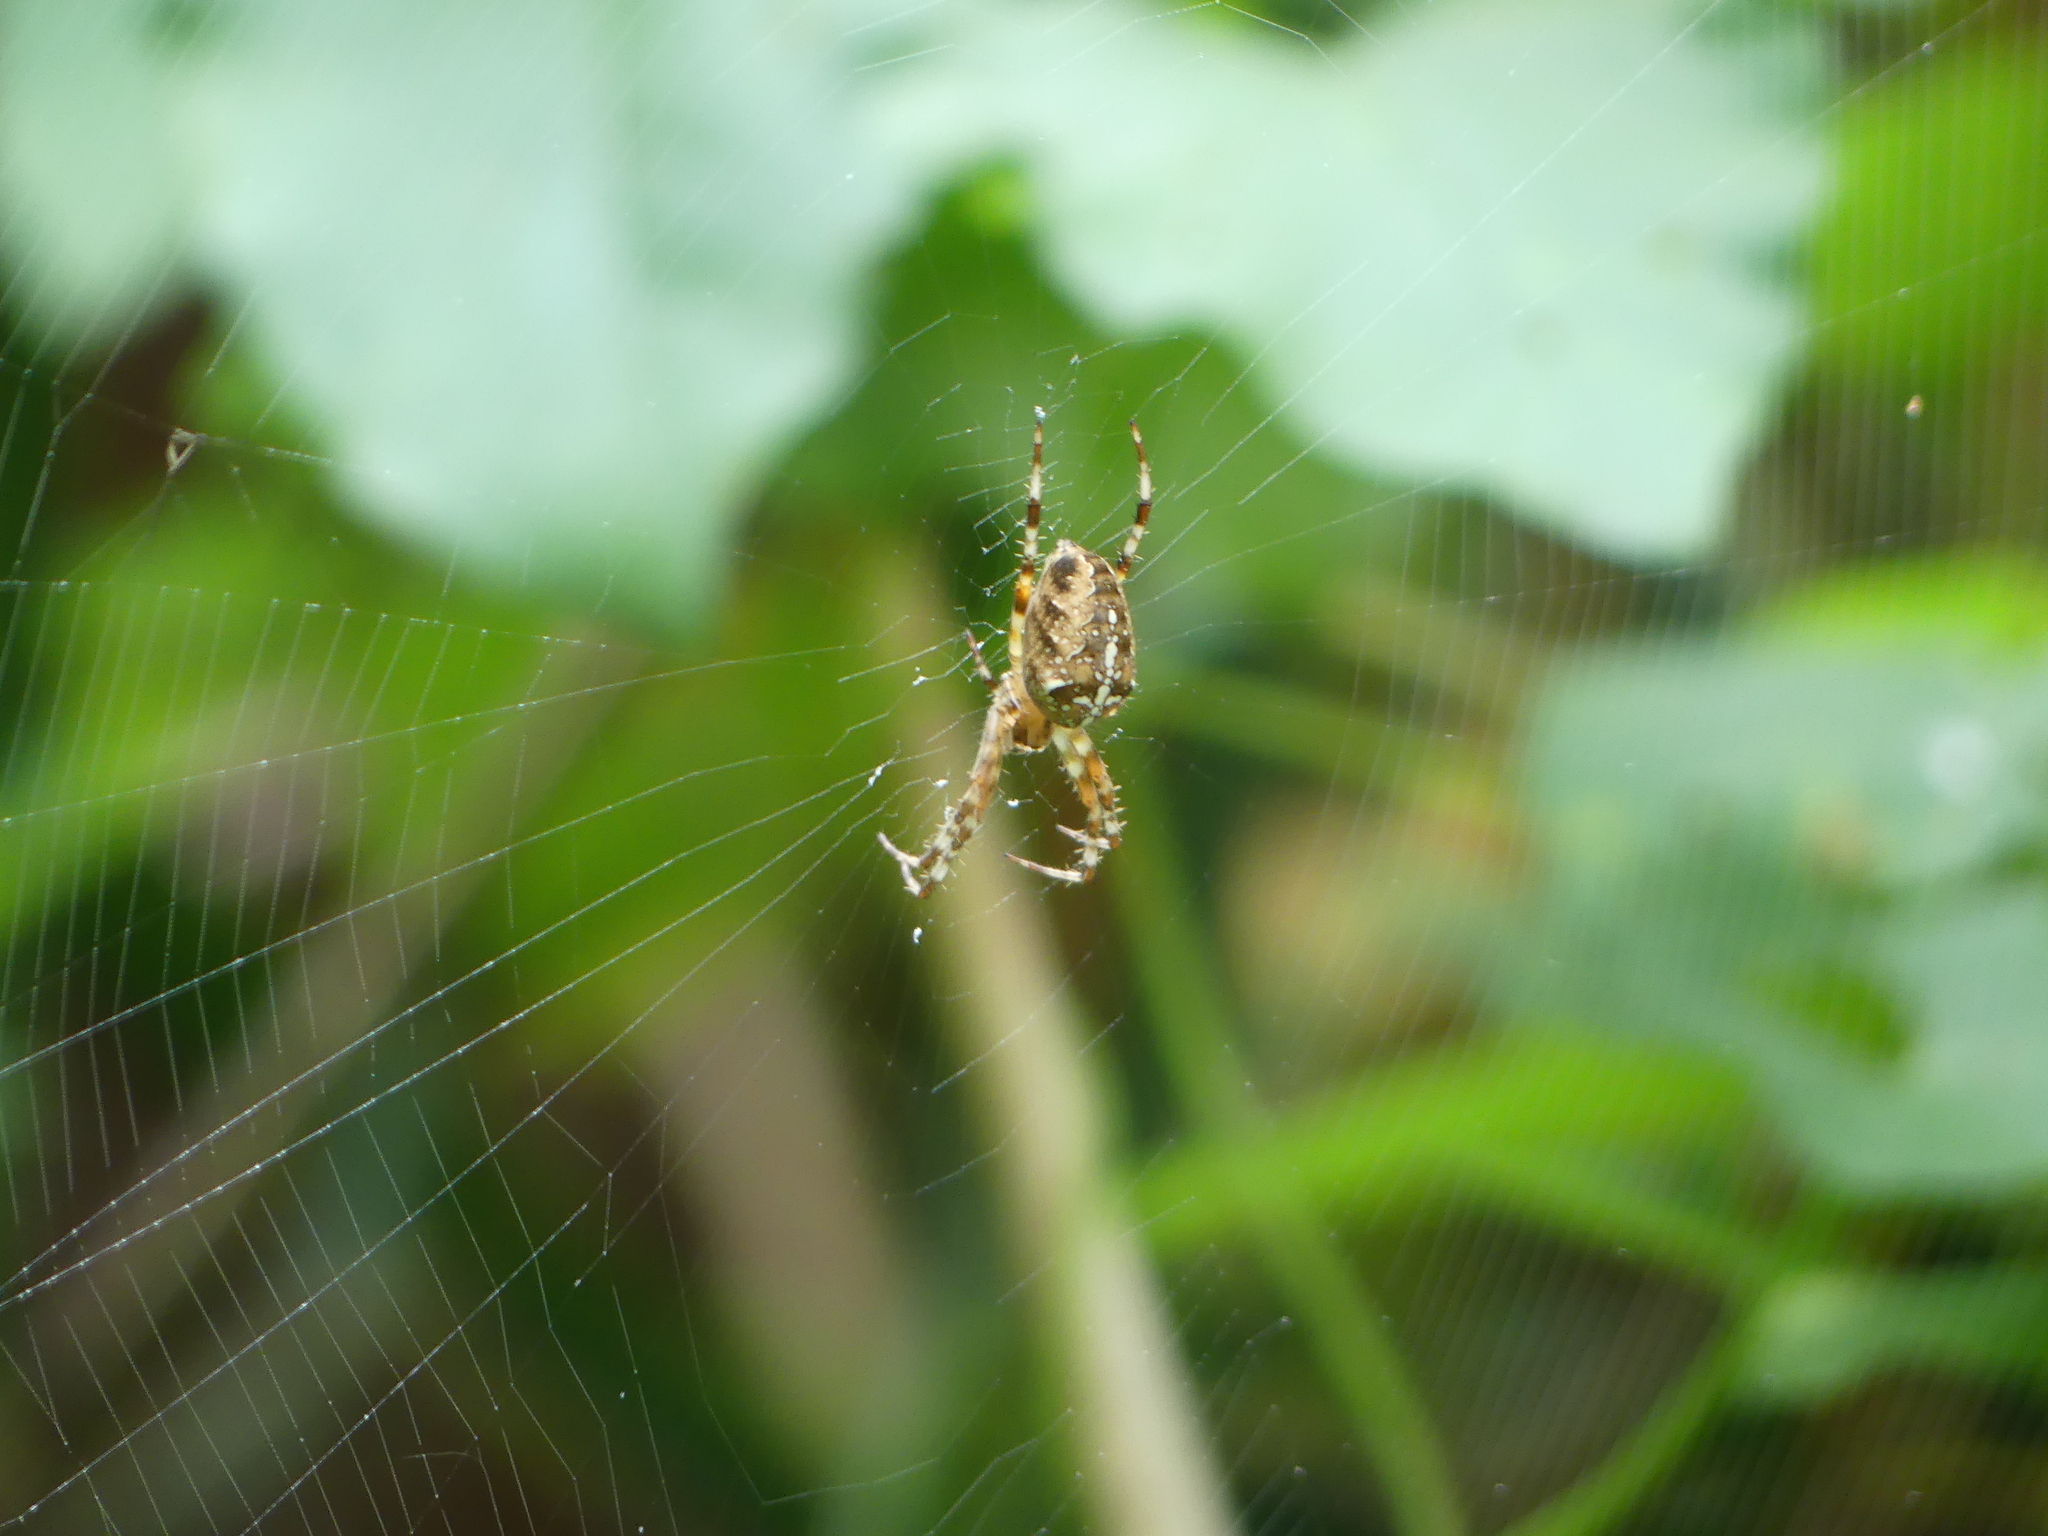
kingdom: Animalia
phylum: Arthropoda
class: Arachnida
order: Araneae
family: Araneidae
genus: Araneus
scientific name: Araneus diadematus
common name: Cross orbweaver
